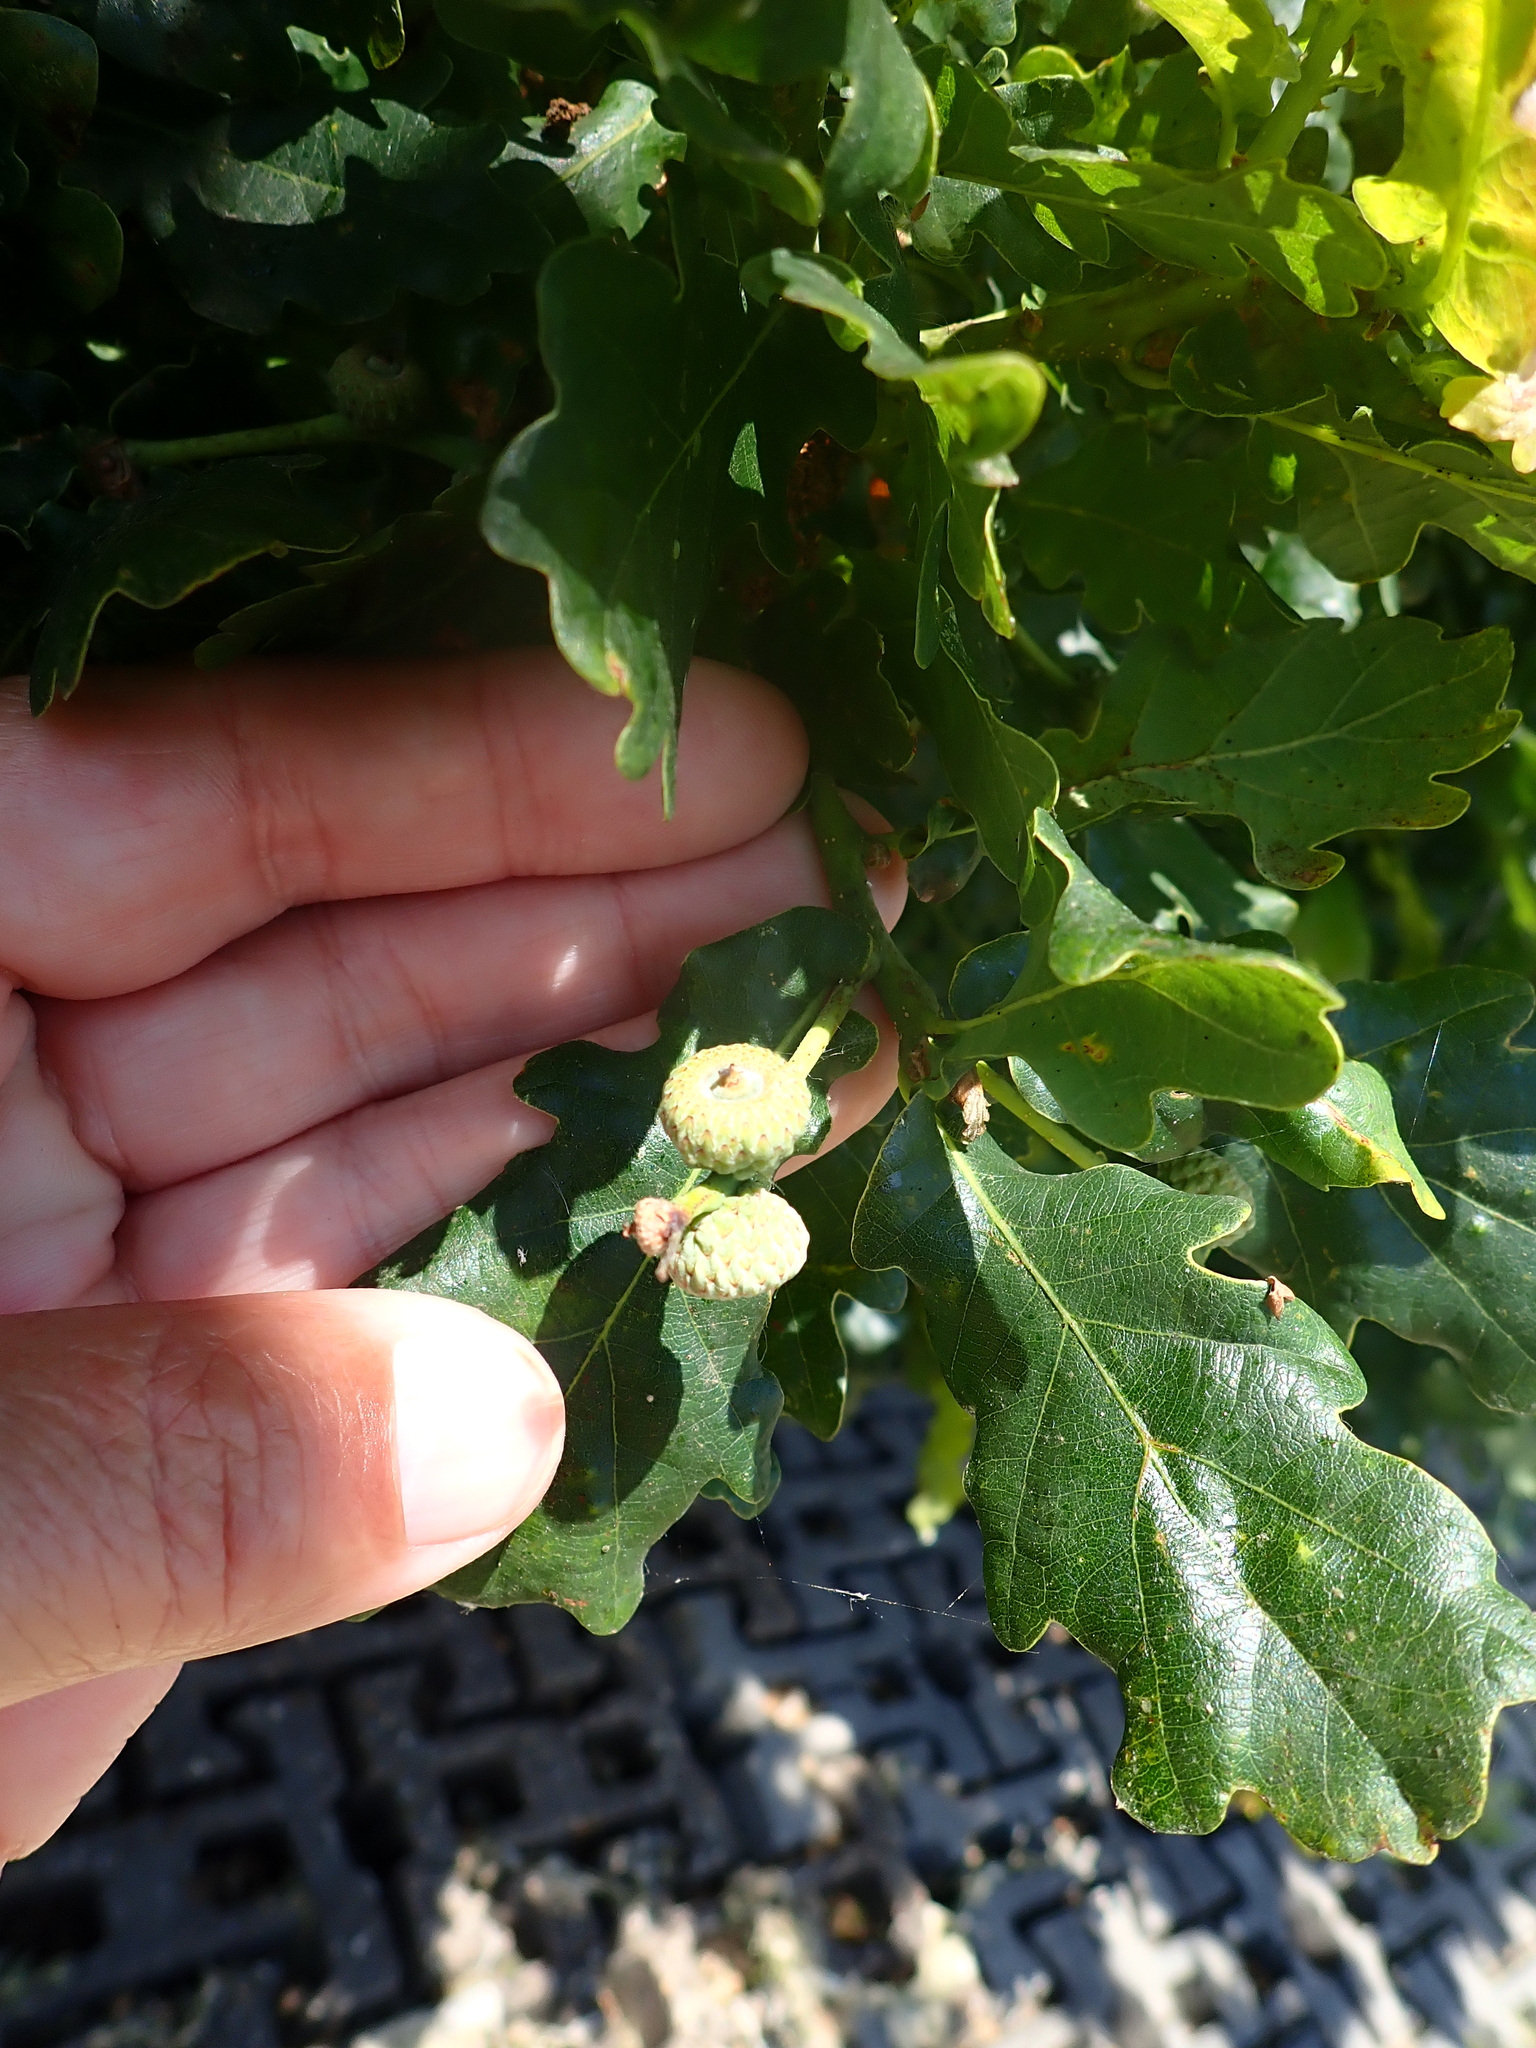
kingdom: Plantae
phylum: Tracheophyta
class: Magnoliopsida
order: Fagales
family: Fagaceae
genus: Quercus
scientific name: Quercus robur
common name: Pedunculate oak
